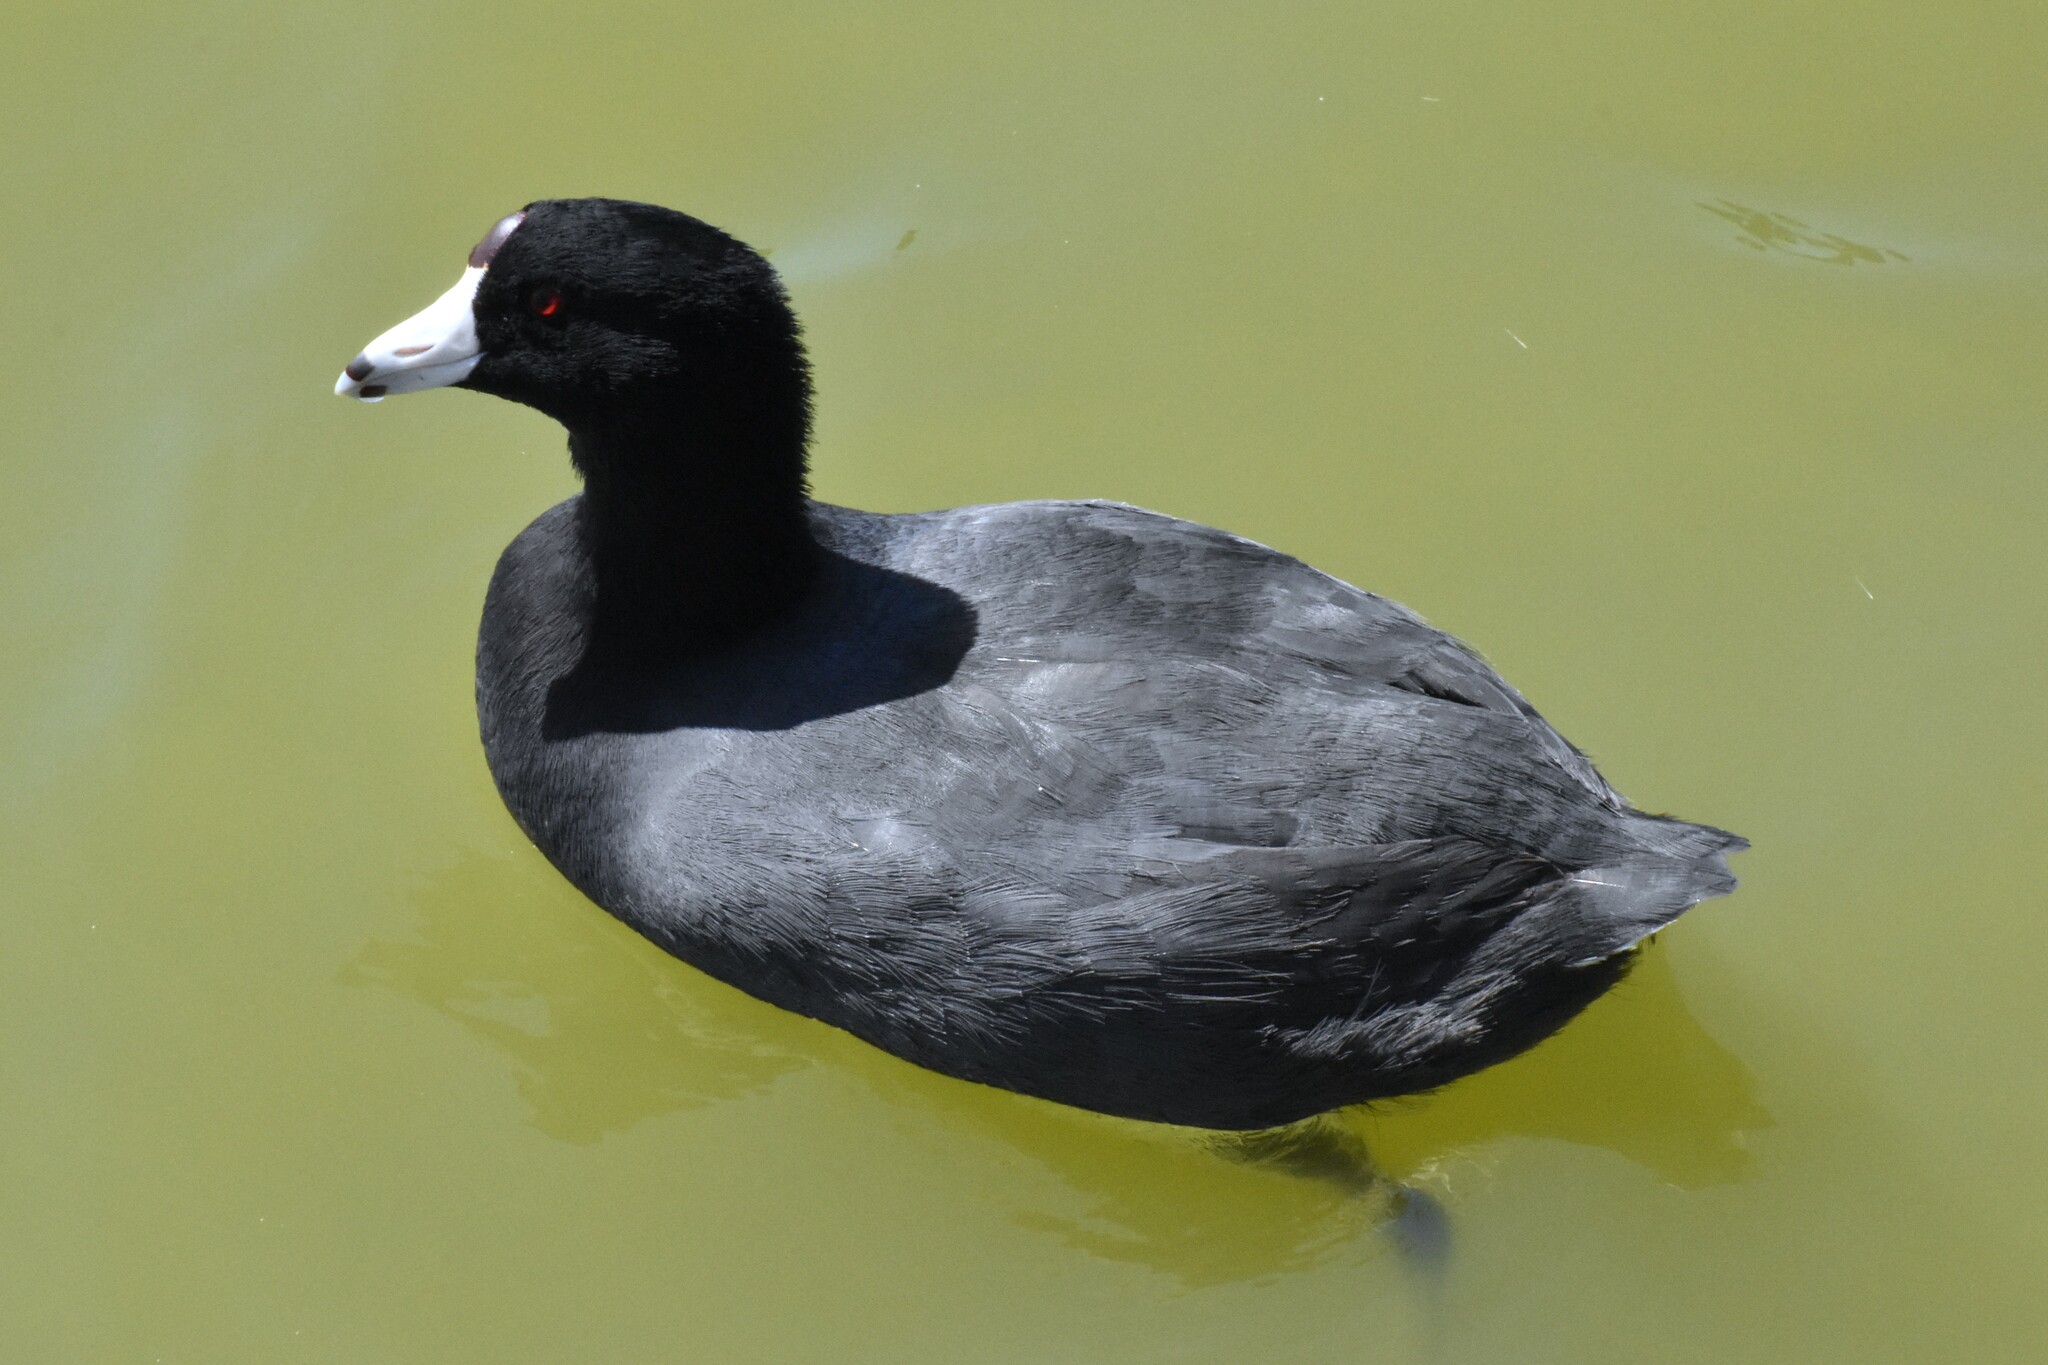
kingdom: Animalia
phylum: Chordata
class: Aves
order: Gruiformes
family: Rallidae
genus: Fulica
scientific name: Fulica americana
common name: American coot
